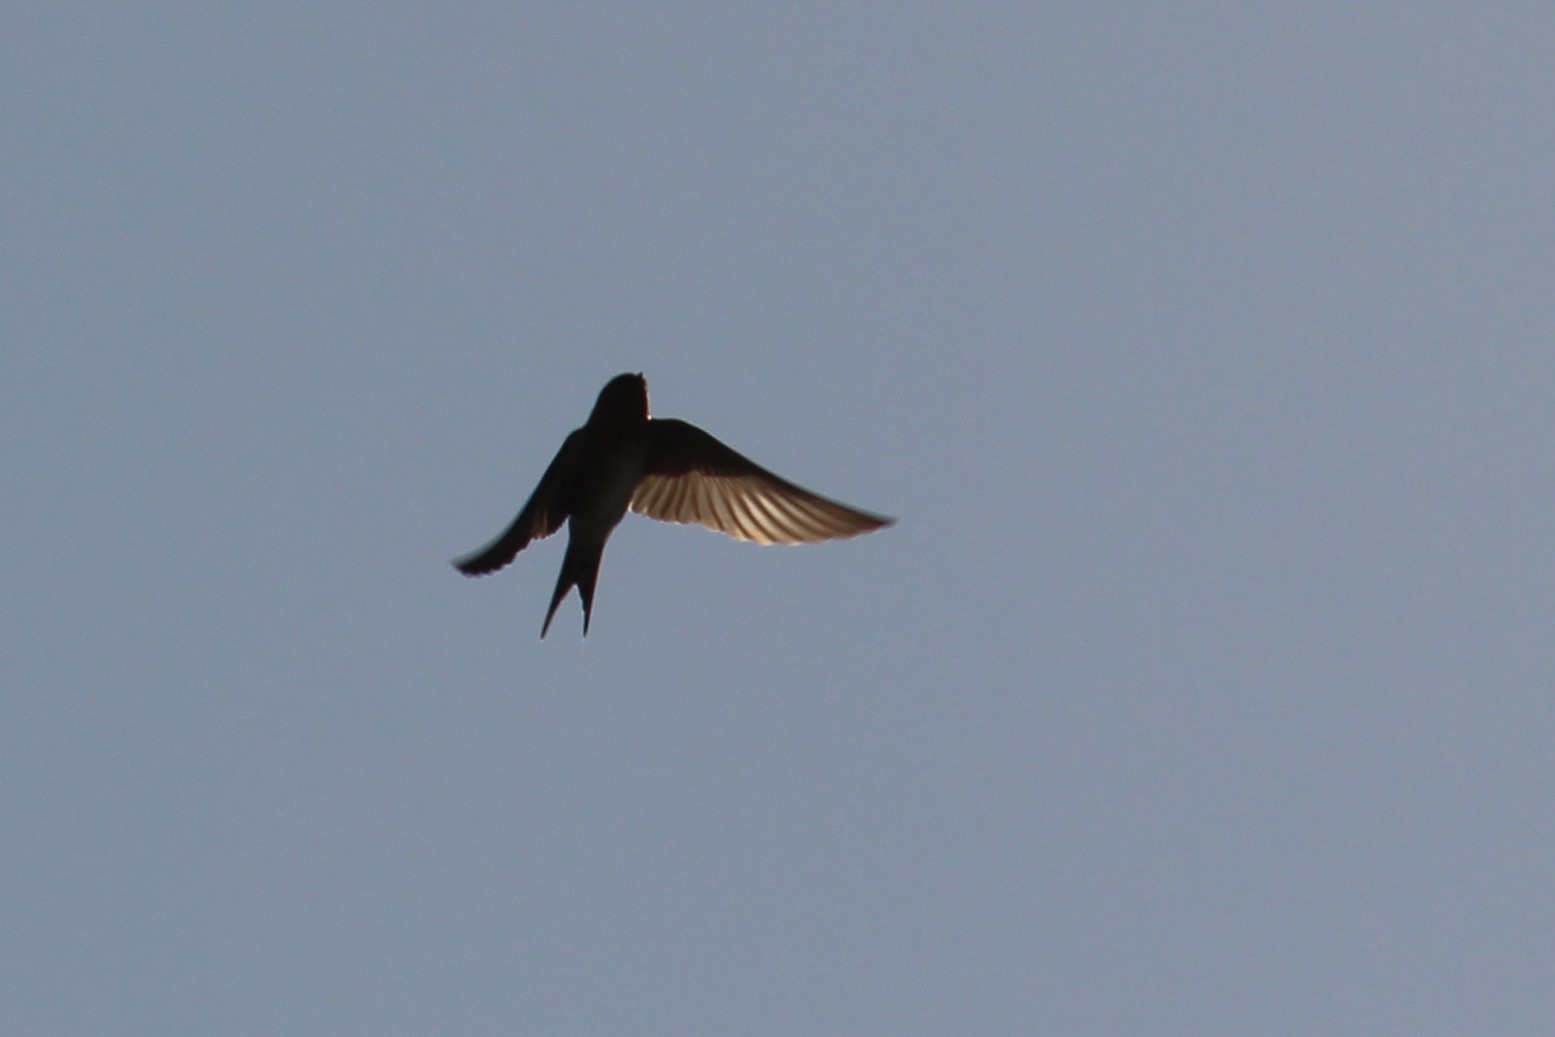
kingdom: Animalia
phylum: Chordata
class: Aves
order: Passeriformes
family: Hirundinidae
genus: Hirundo
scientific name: Hirundo neoxena
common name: Welcome swallow
